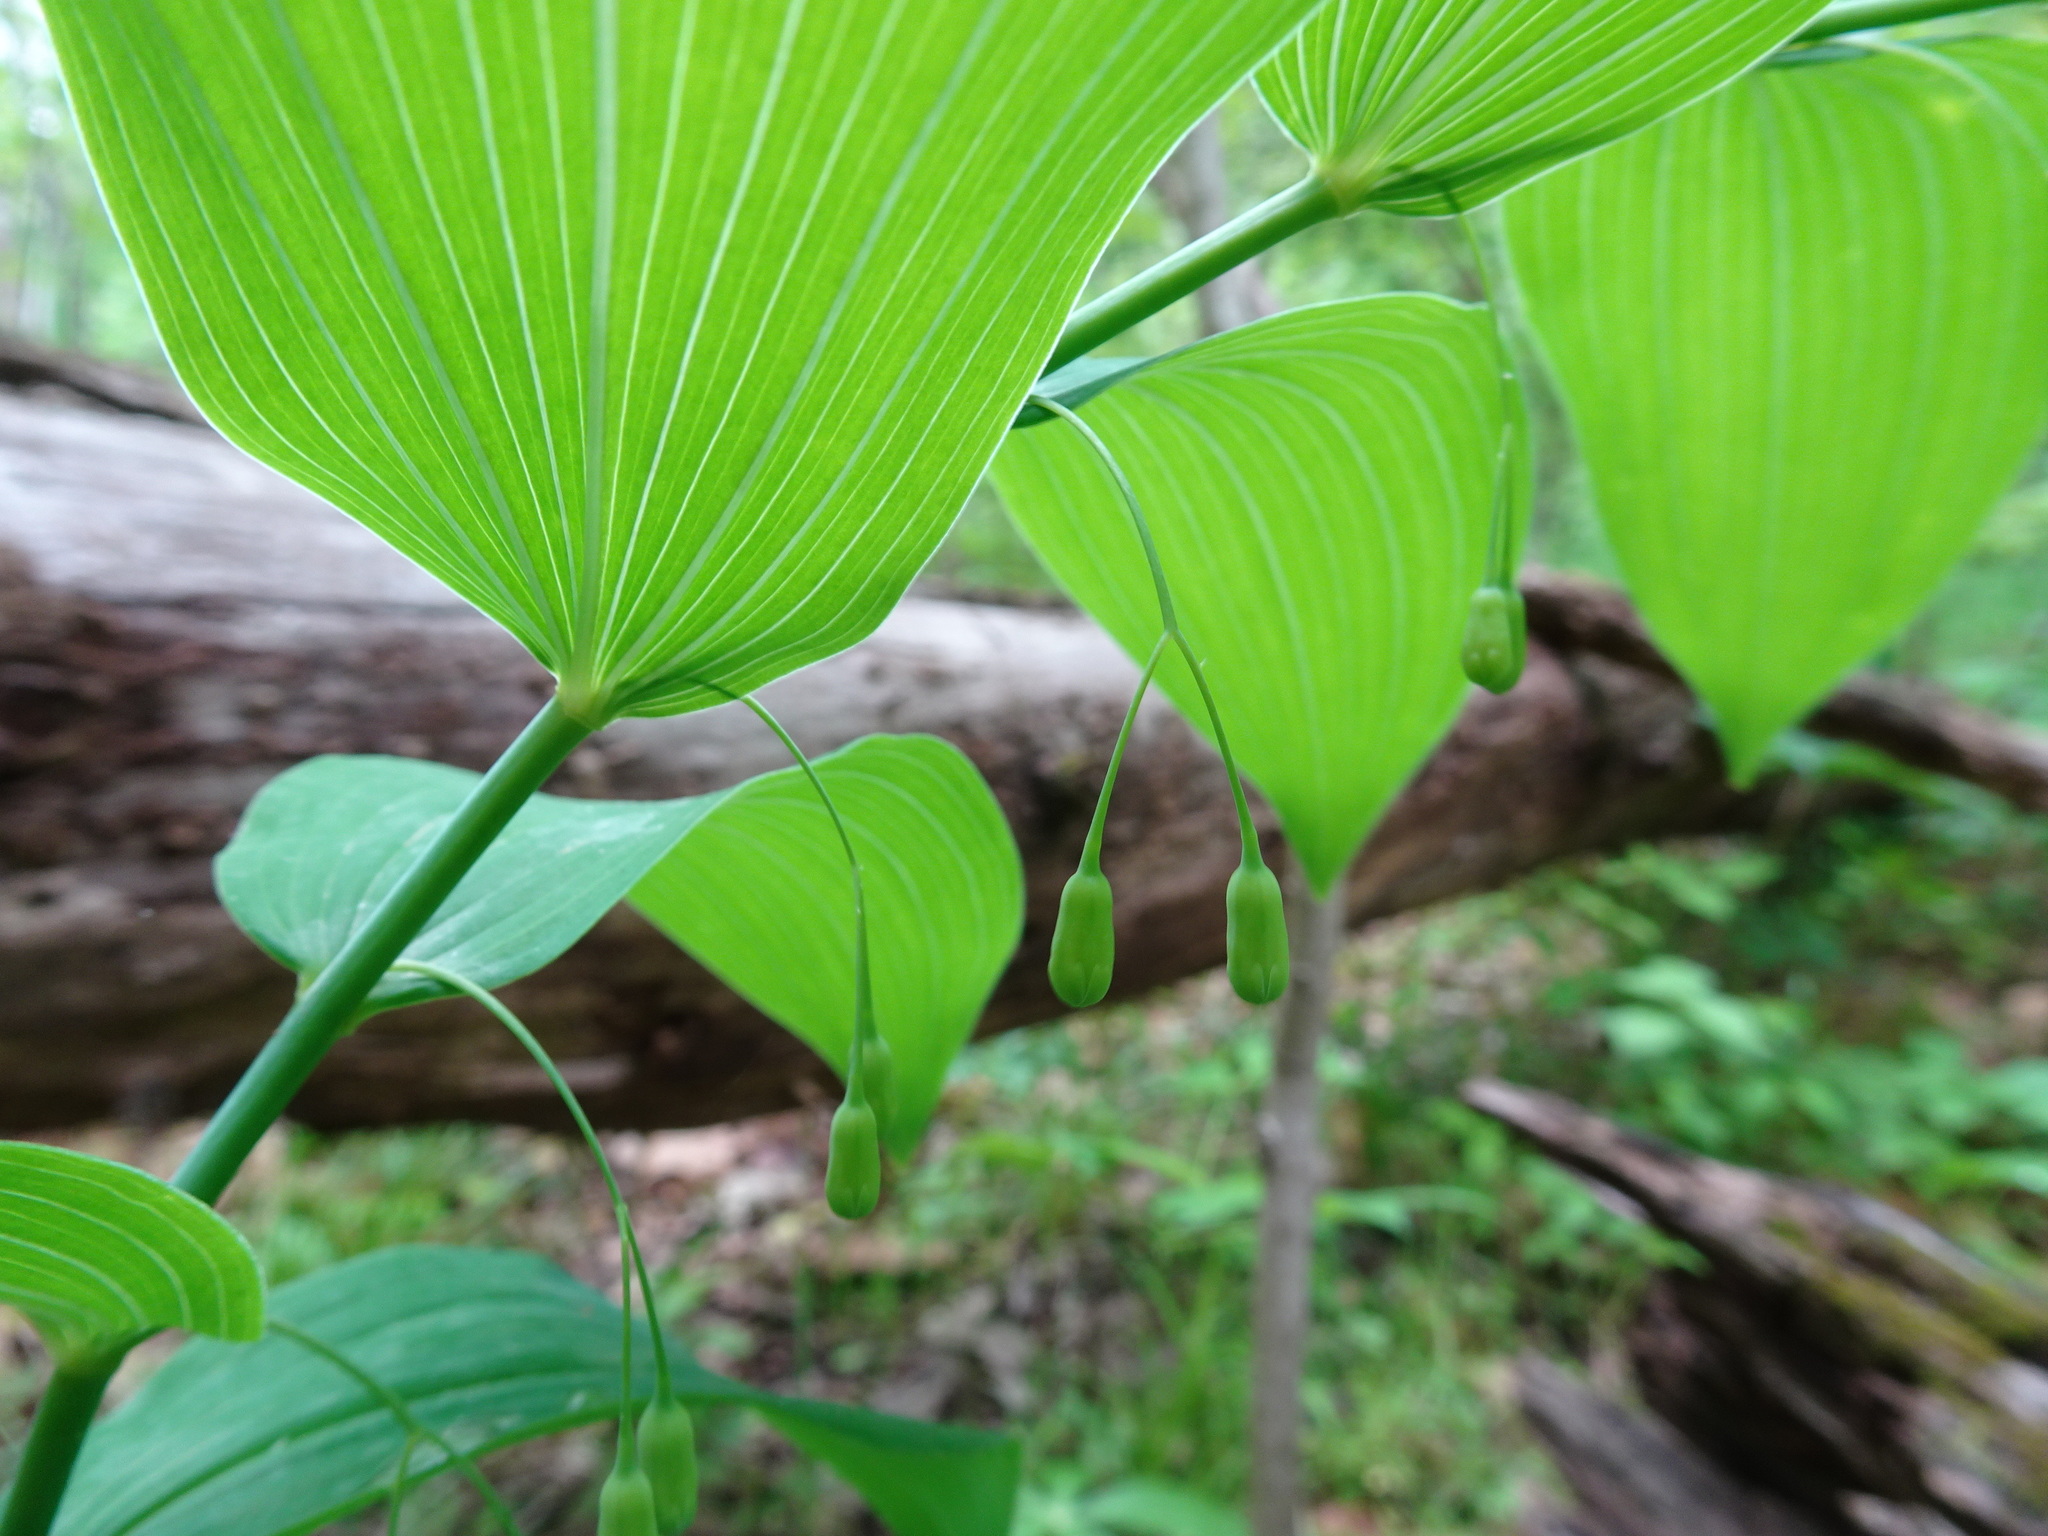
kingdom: Plantae
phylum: Tracheophyta
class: Liliopsida
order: Asparagales
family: Asparagaceae
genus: Polygonatum
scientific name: Polygonatum biflorum
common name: American solomon's-seal
